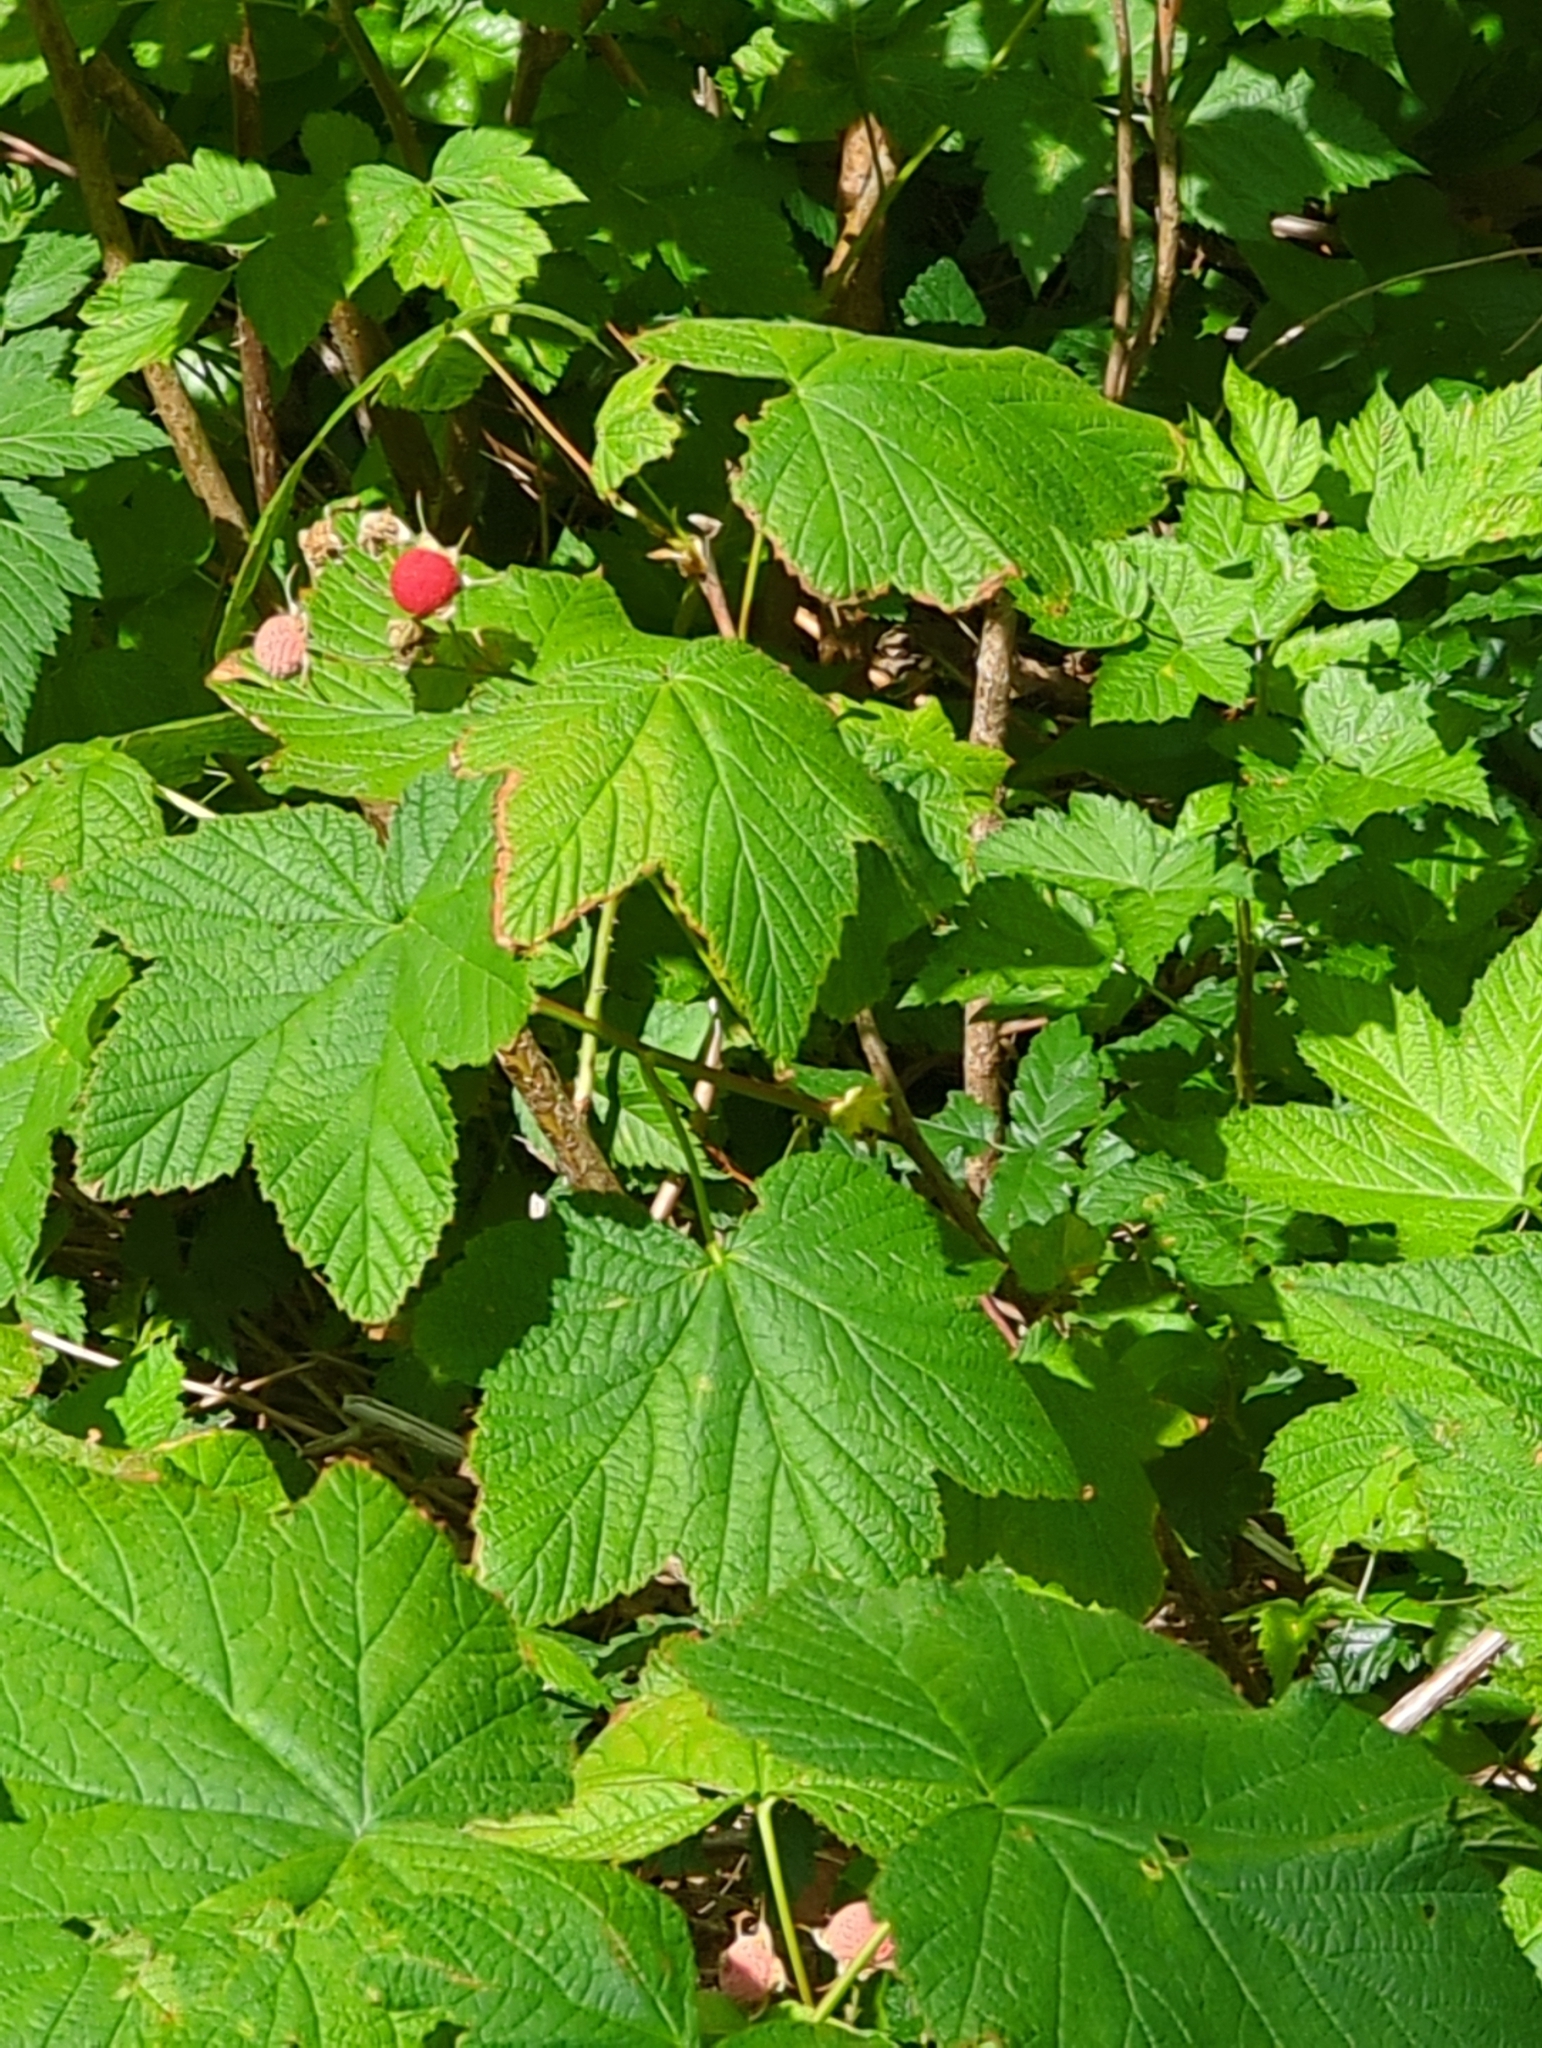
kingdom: Plantae
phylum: Tracheophyta
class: Magnoliopsida
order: Rosales
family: Rosaceae
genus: Rubus
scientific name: Rubus parviflorus
